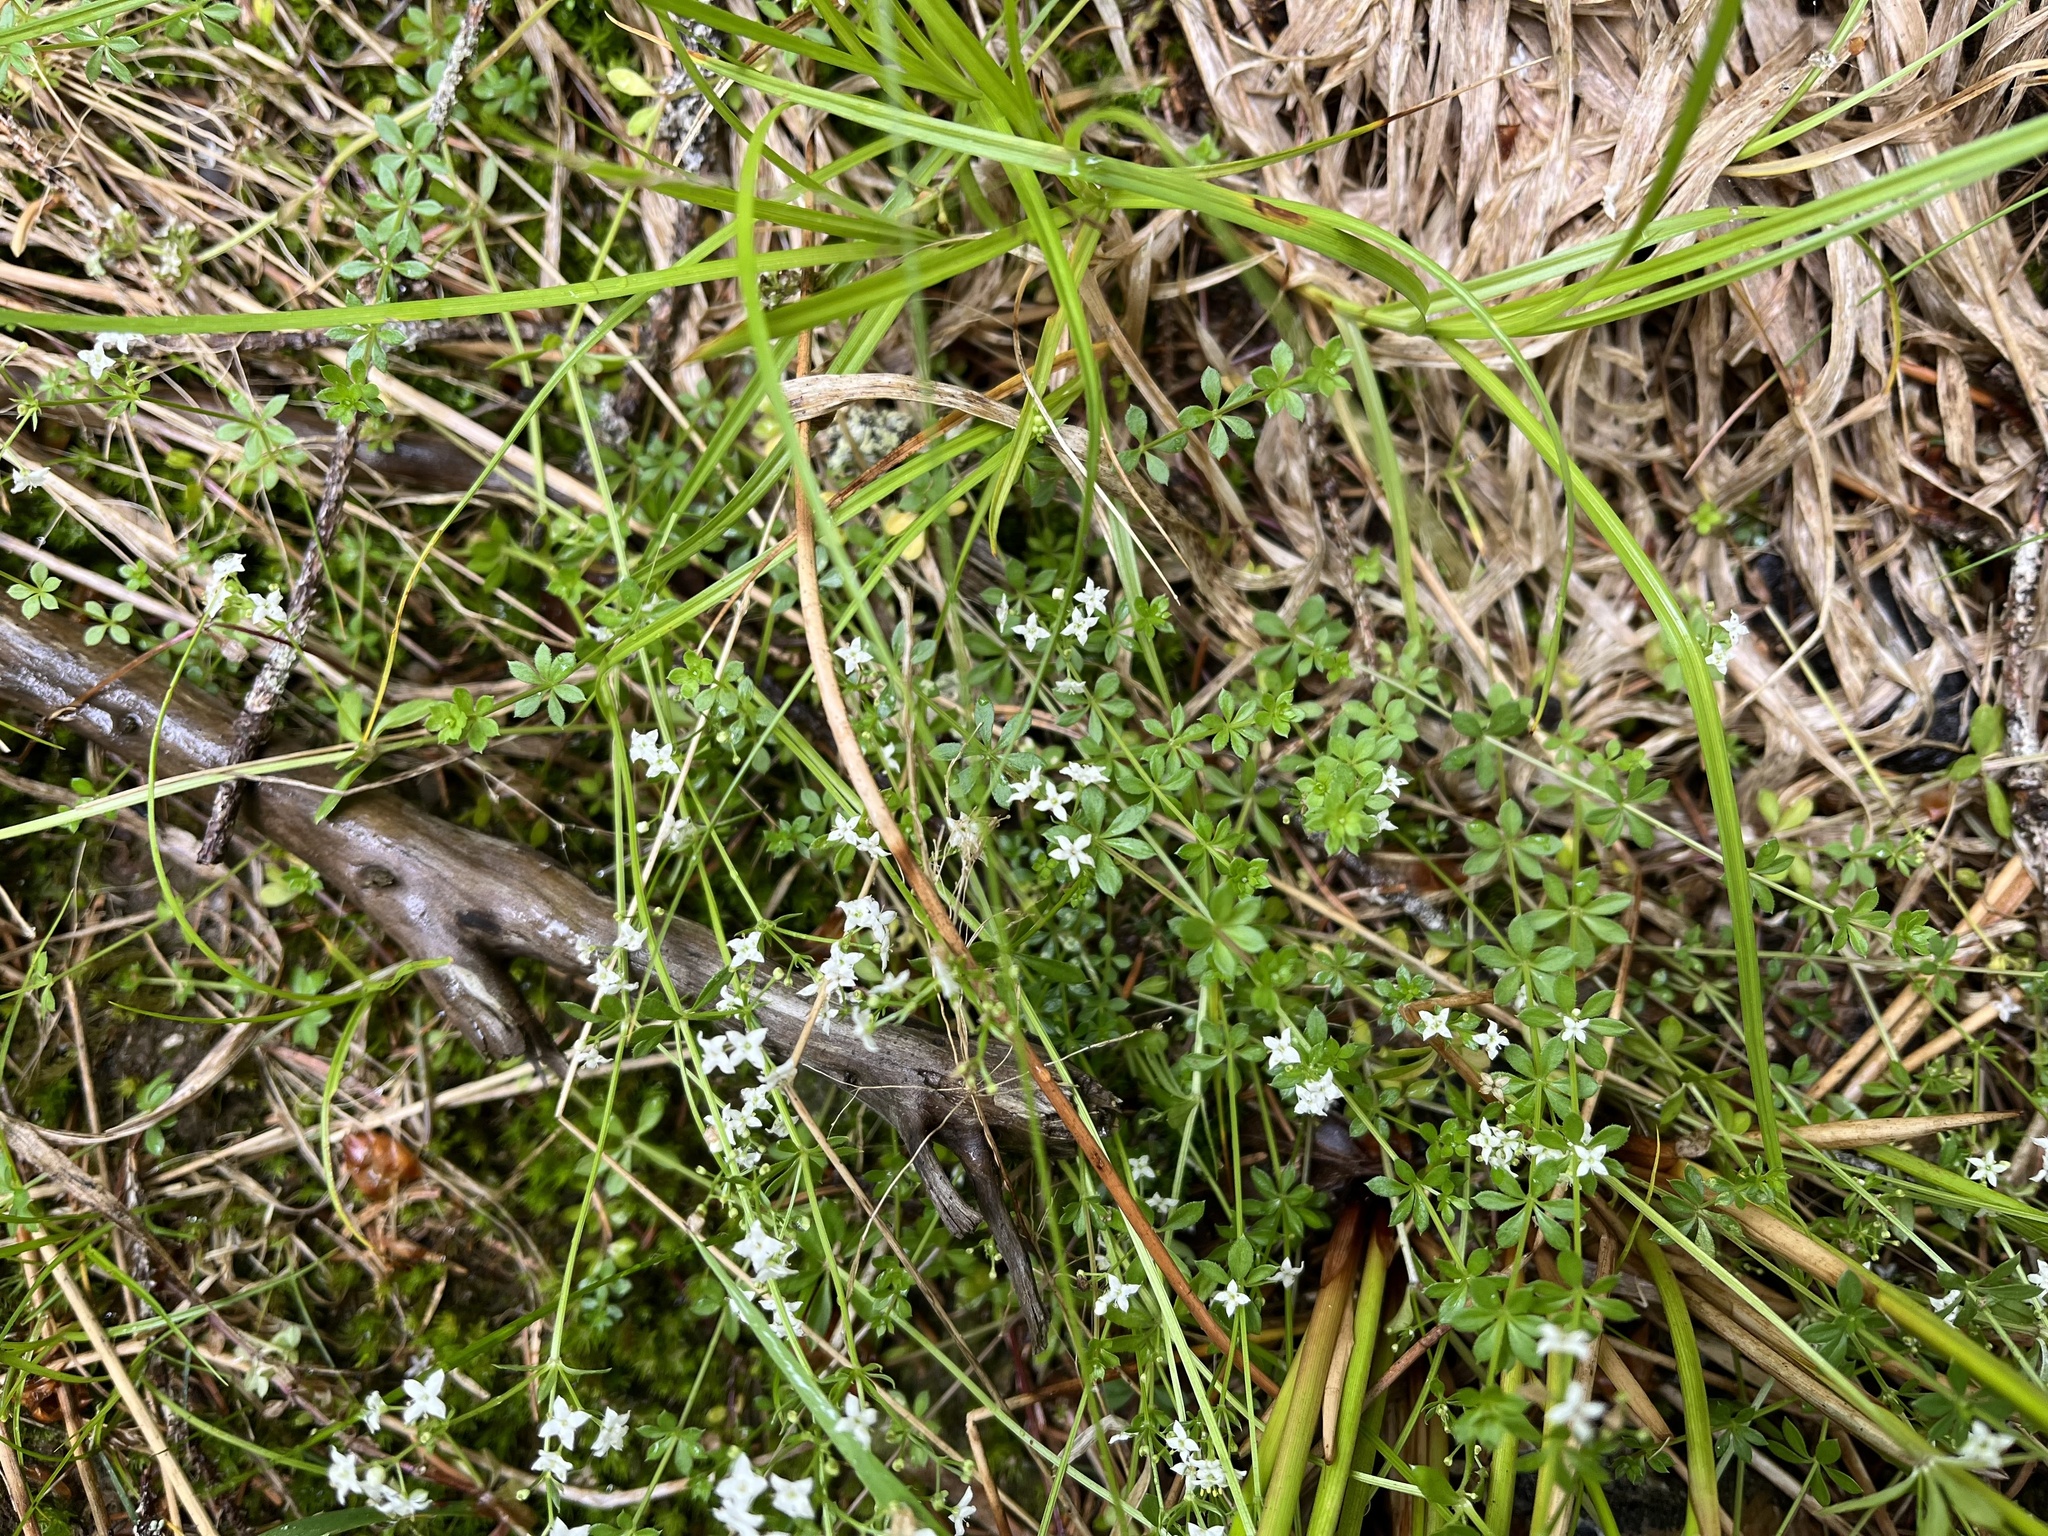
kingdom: Plantae
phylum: Tracheophyta
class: Magnoliopsida
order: Gentianales
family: Rubiaceae
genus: Galium
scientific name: Galium saxatile
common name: Heath bedstraw
